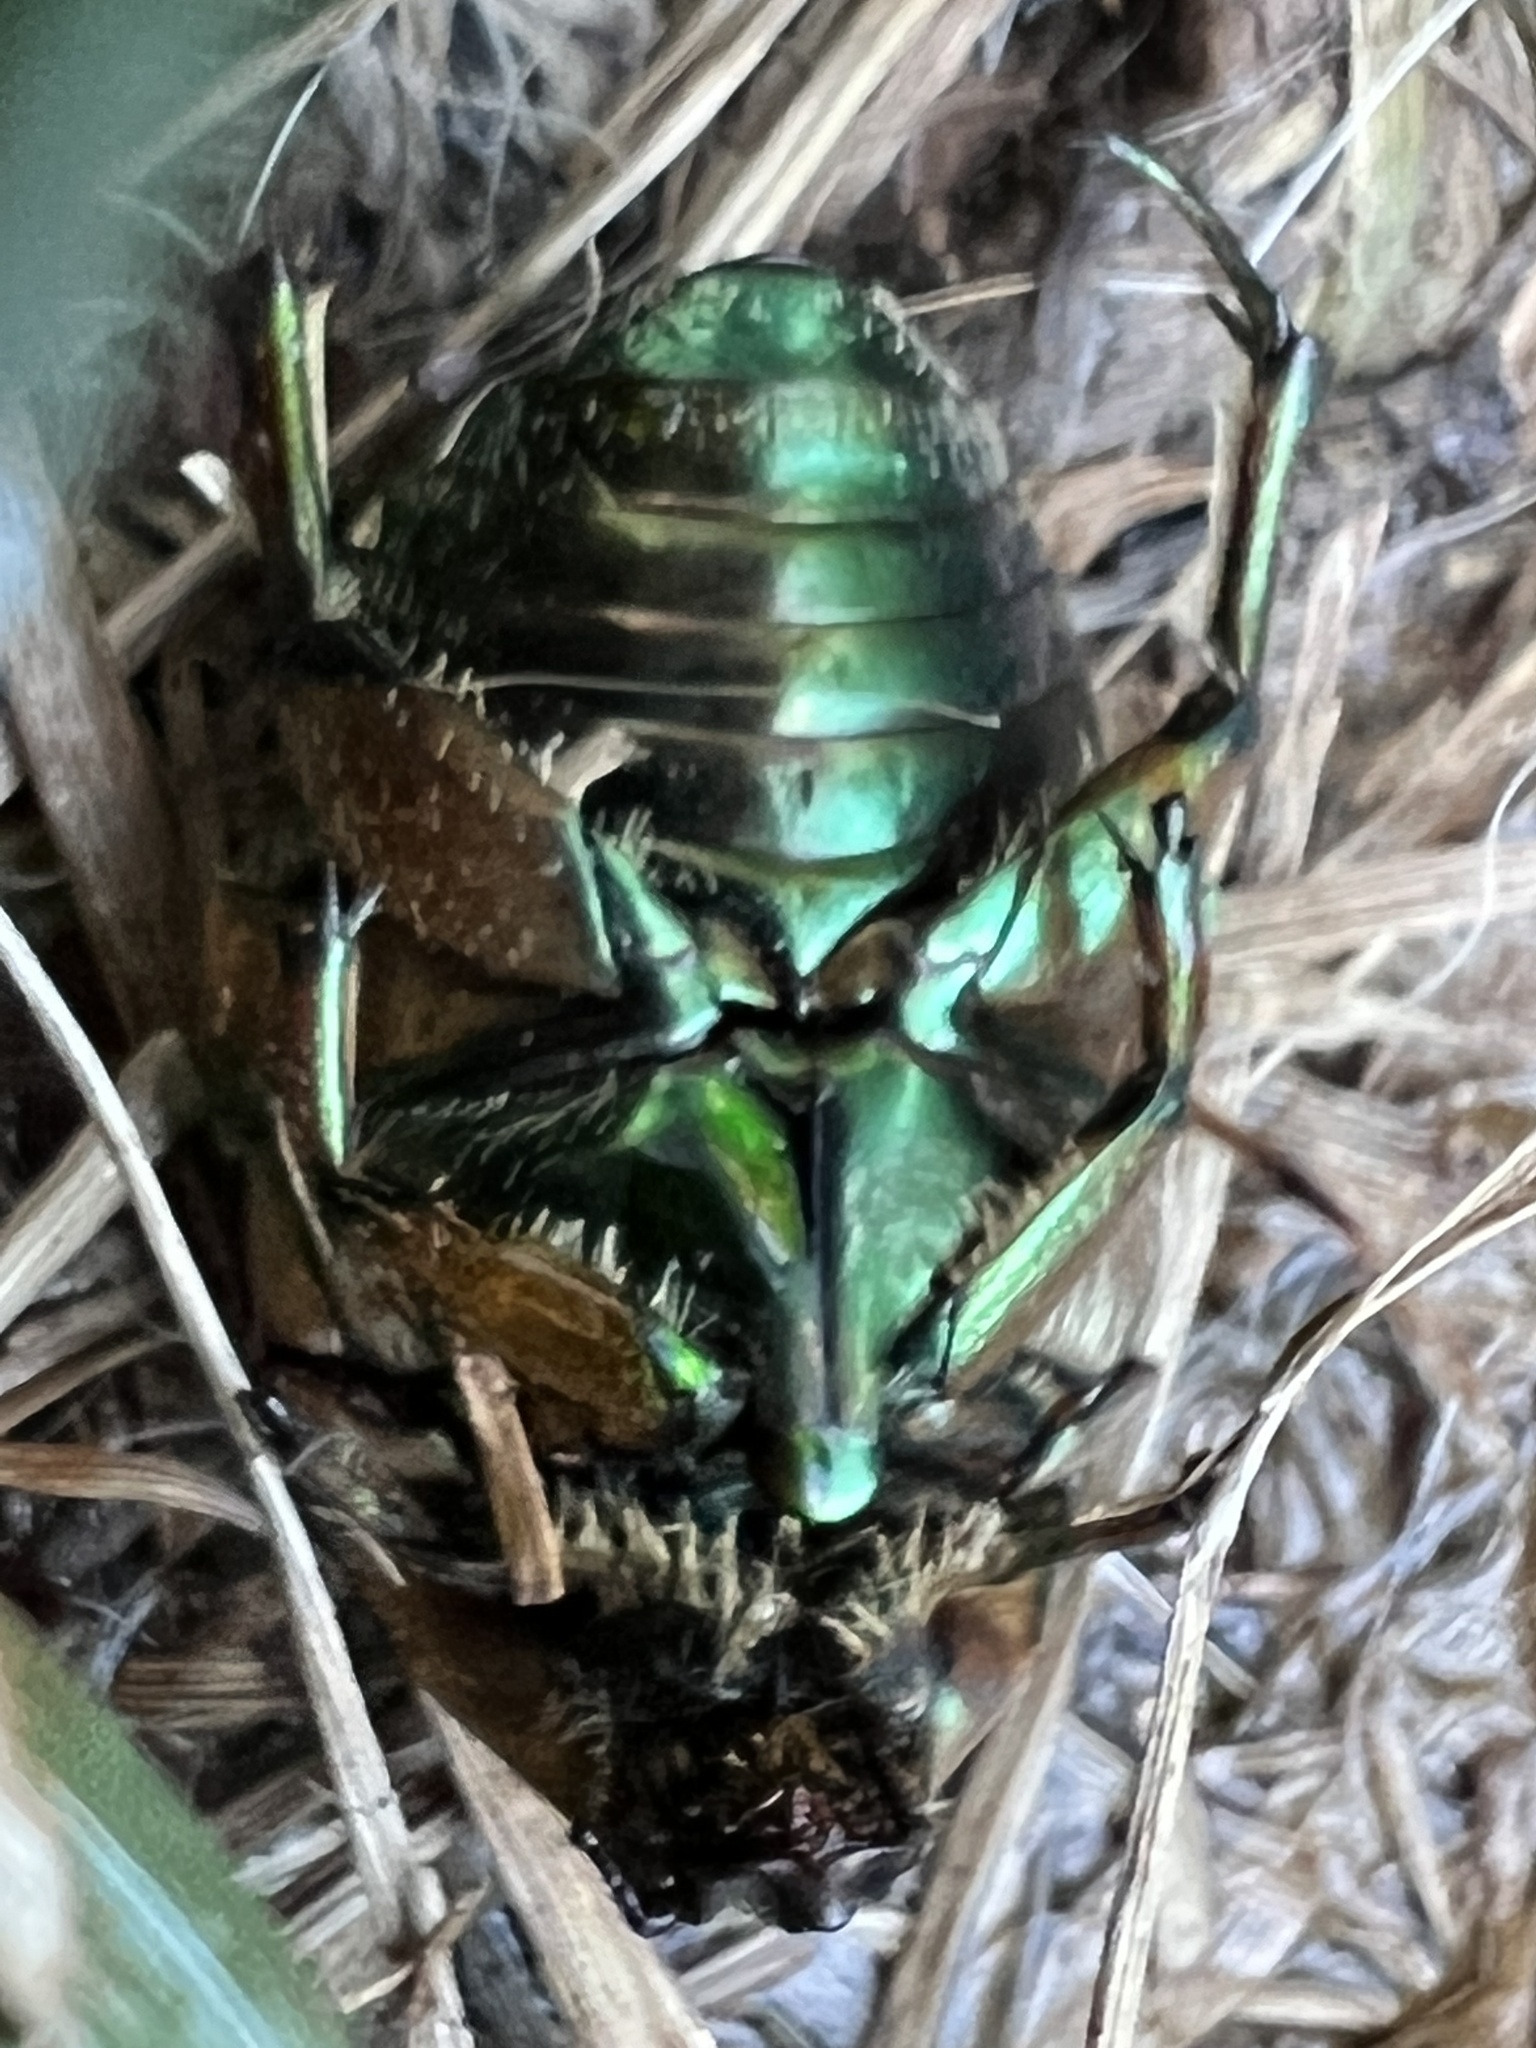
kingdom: Animalia
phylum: Arthropoda
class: Insecta
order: Coleoptera
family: Scarabaeidae
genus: Cotinis
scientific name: Cotinis nitida
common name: Common green june beetle
